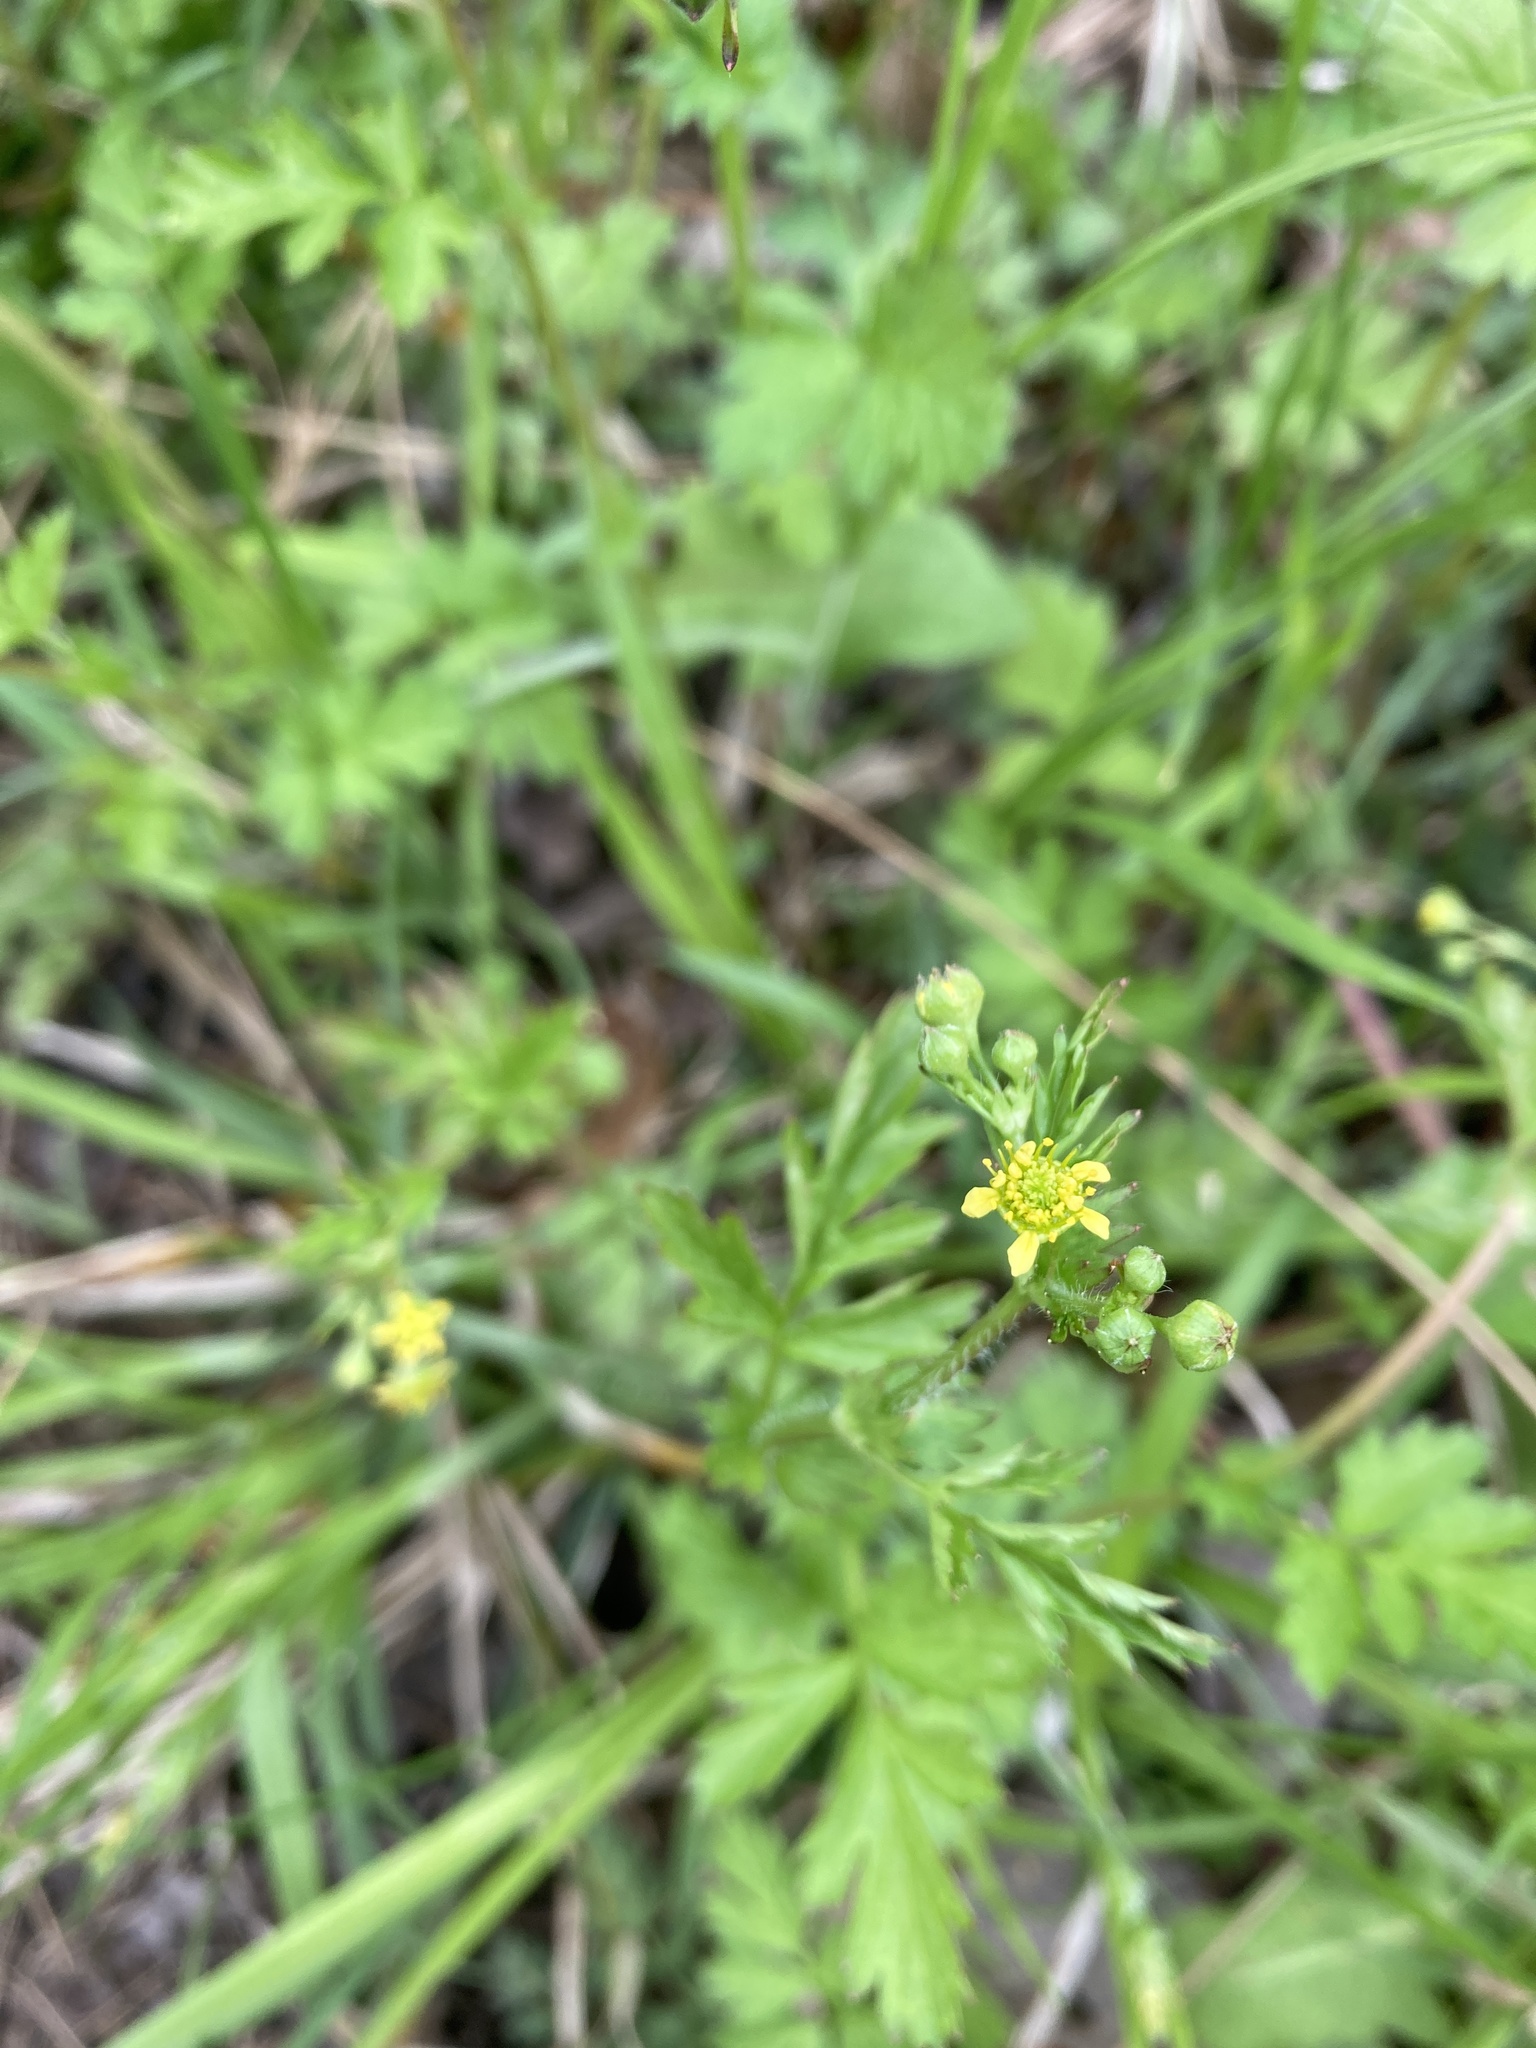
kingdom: Plantae
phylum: Tracheophyta
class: Magnoliopsida
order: Rosales
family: Rosaceae
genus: Geum
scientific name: Geum vernum
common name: Spring avens
